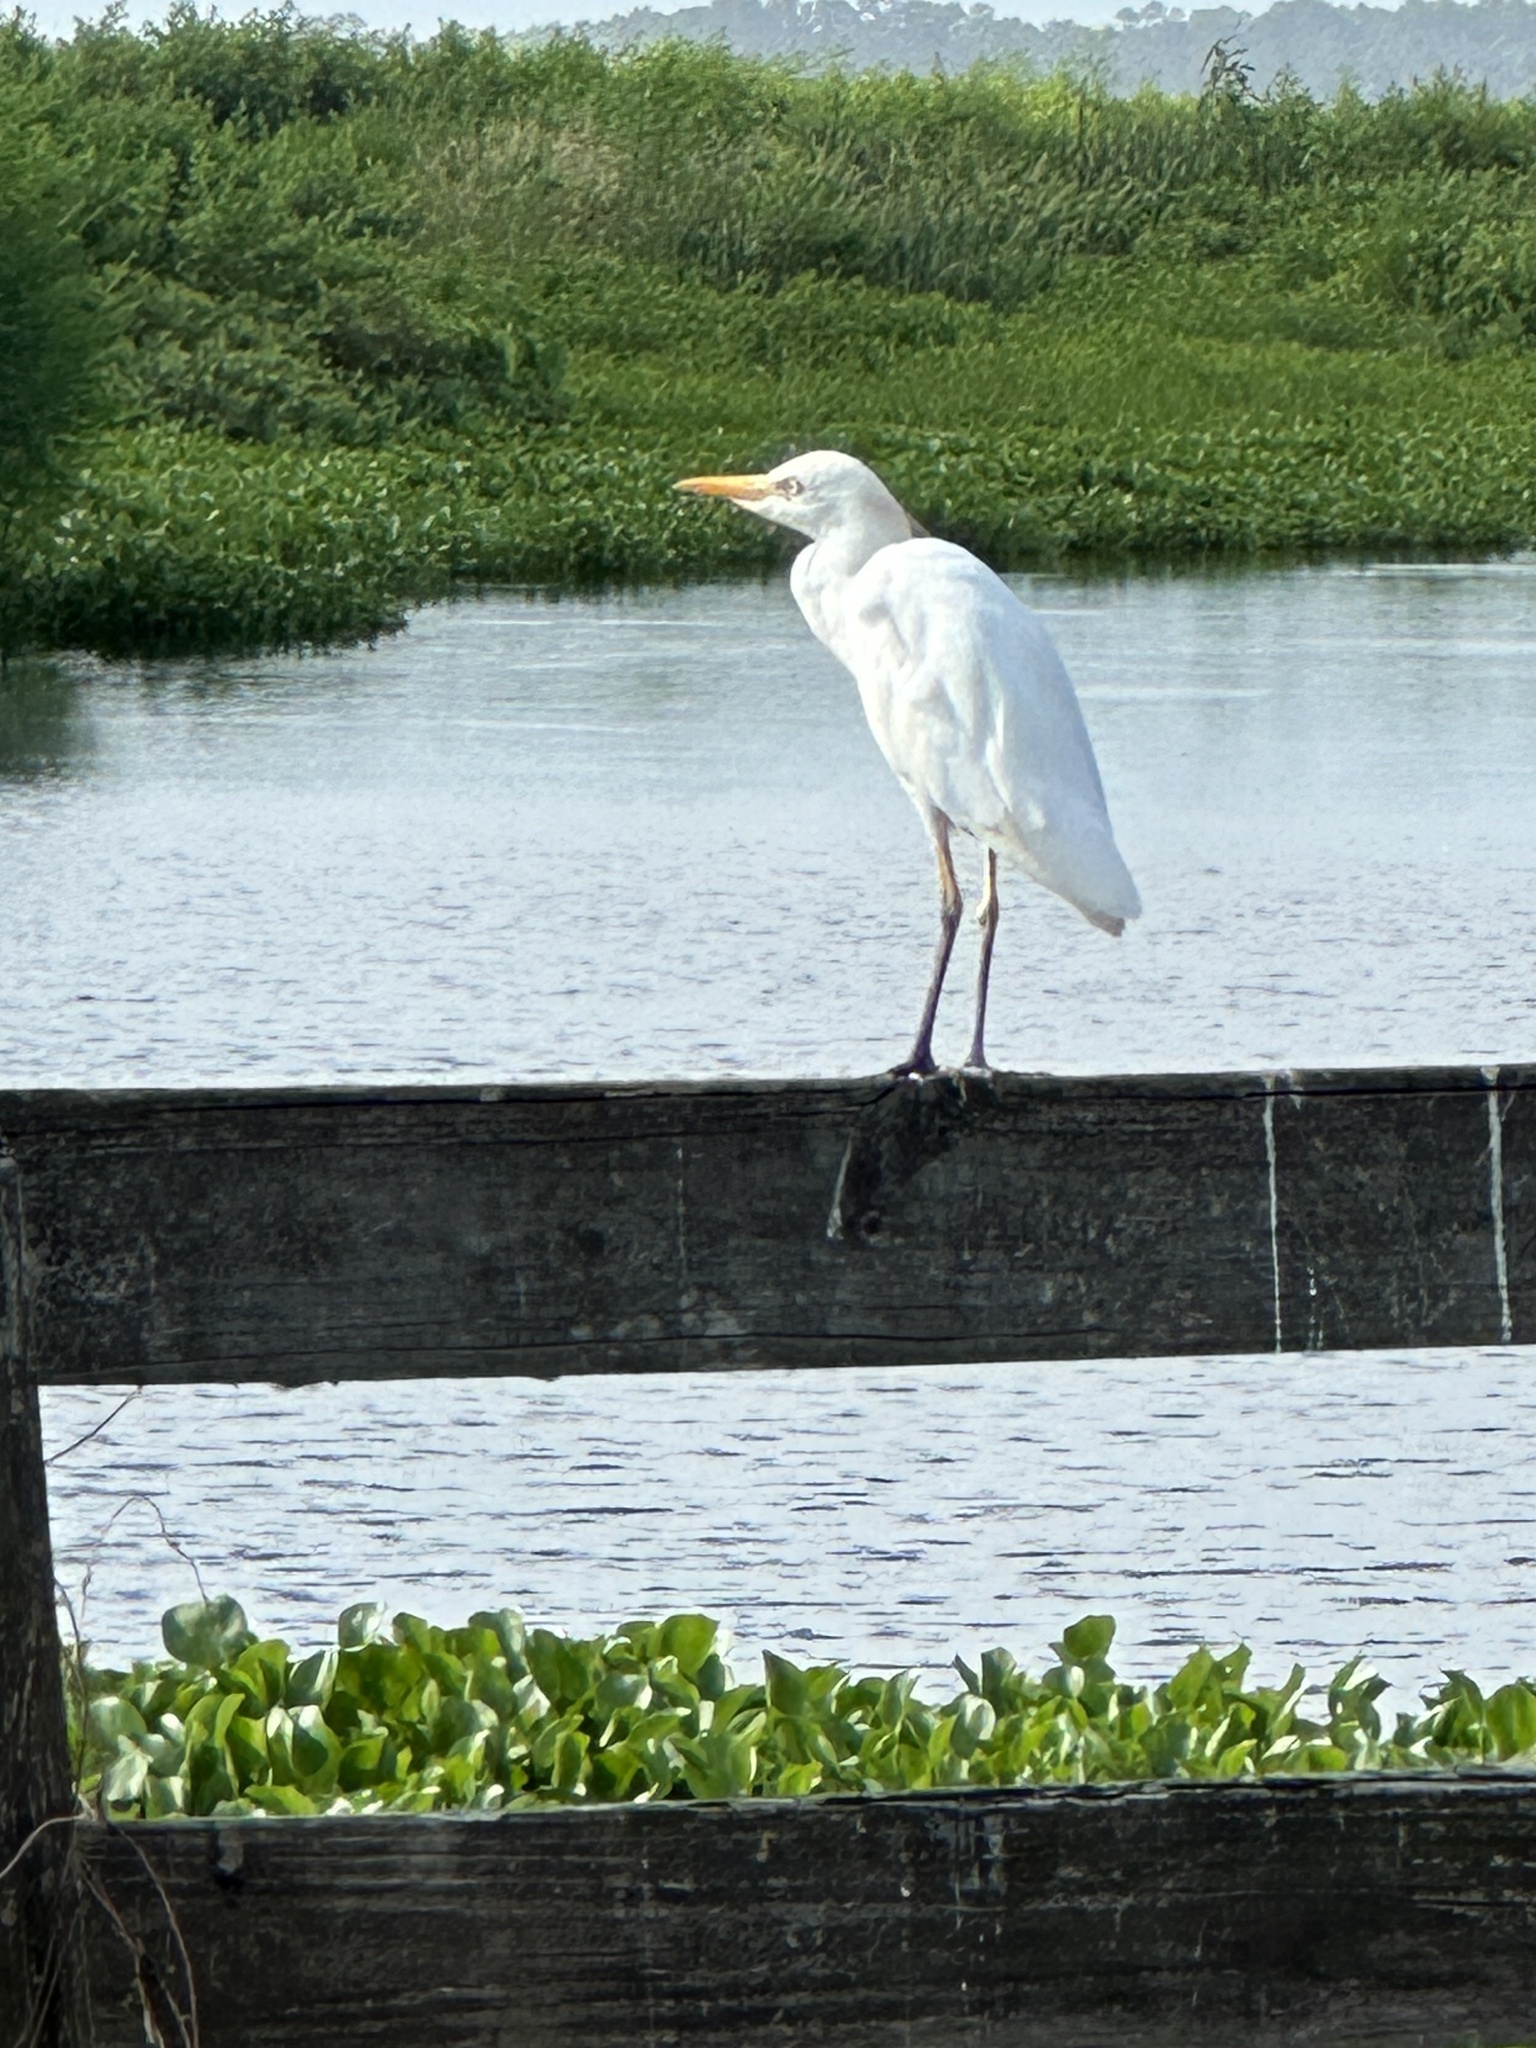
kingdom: Animalia
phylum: Chordata
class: Aves
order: Pelecaniformes
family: Ardeidae
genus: Bubulcus
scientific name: Bubulcus ibis
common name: Cattle egret
